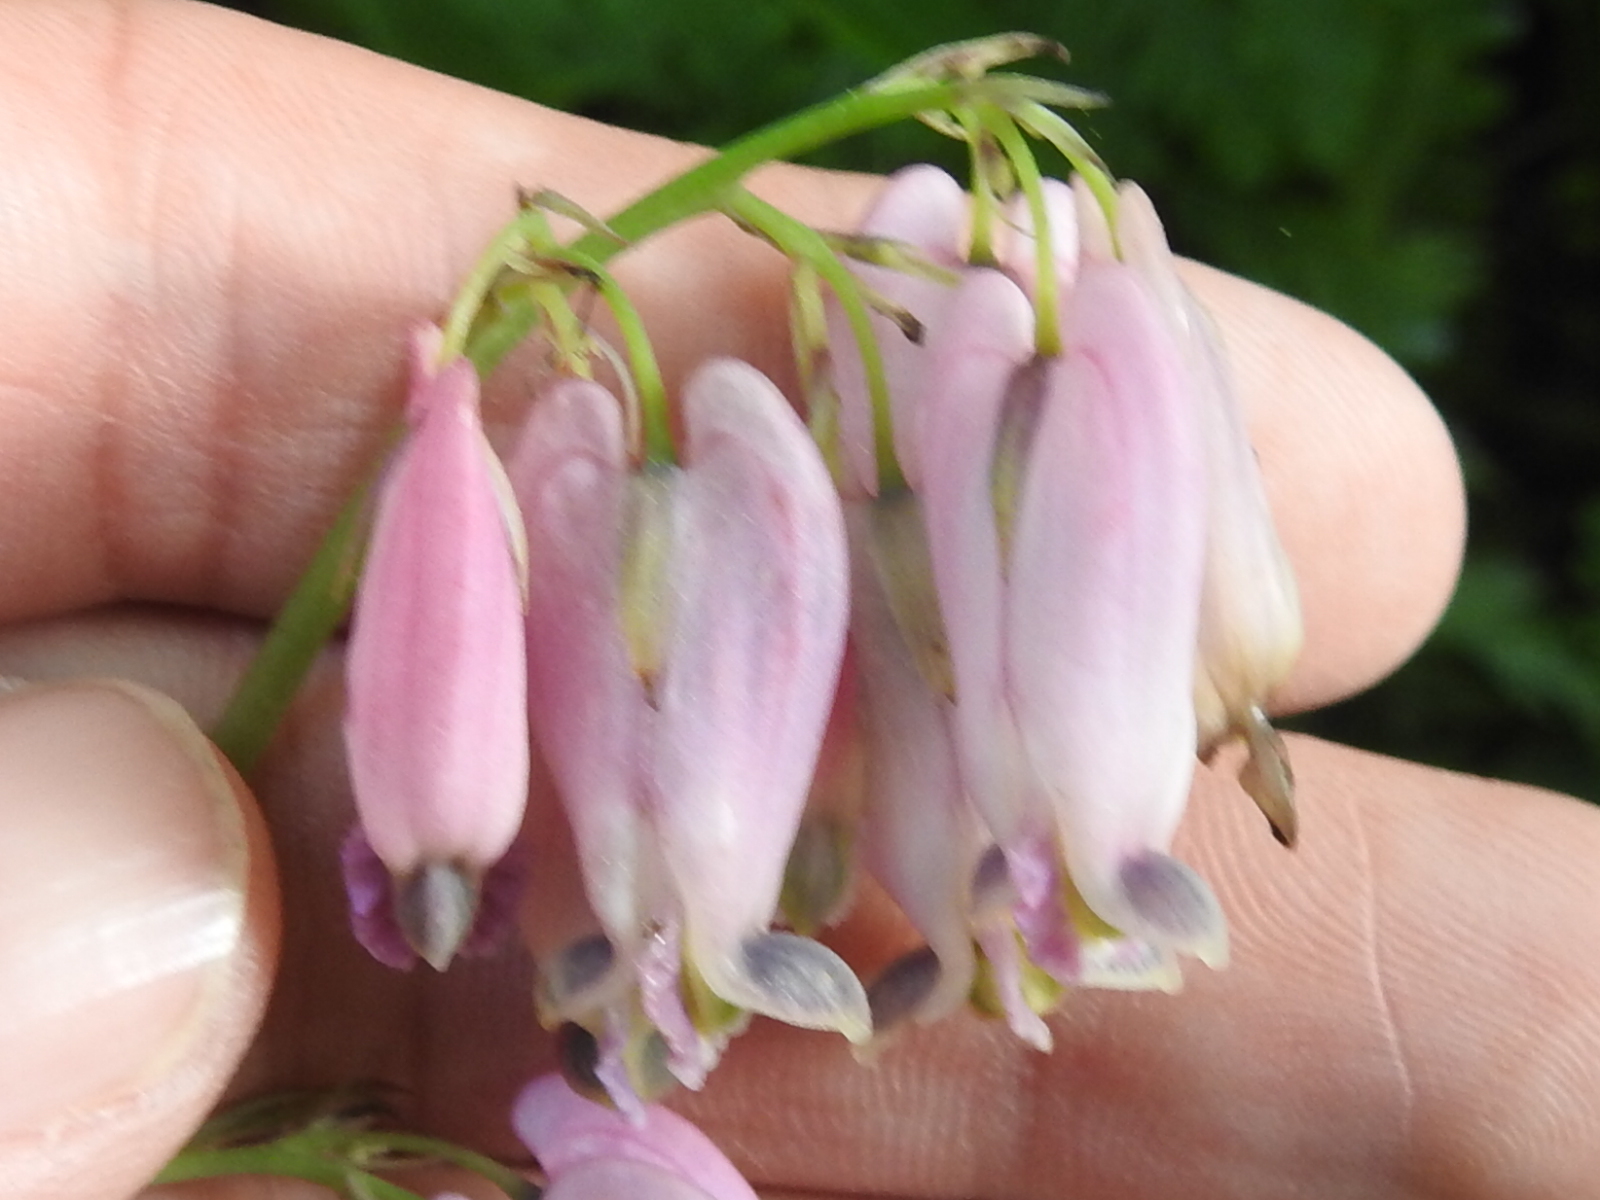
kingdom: Plantae
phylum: Tracheophyta
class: Magnoliopsida
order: Ranunculales
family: Papaveraceae
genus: Dicentra
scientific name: Dicentra formosa
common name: Bleeding-heart
